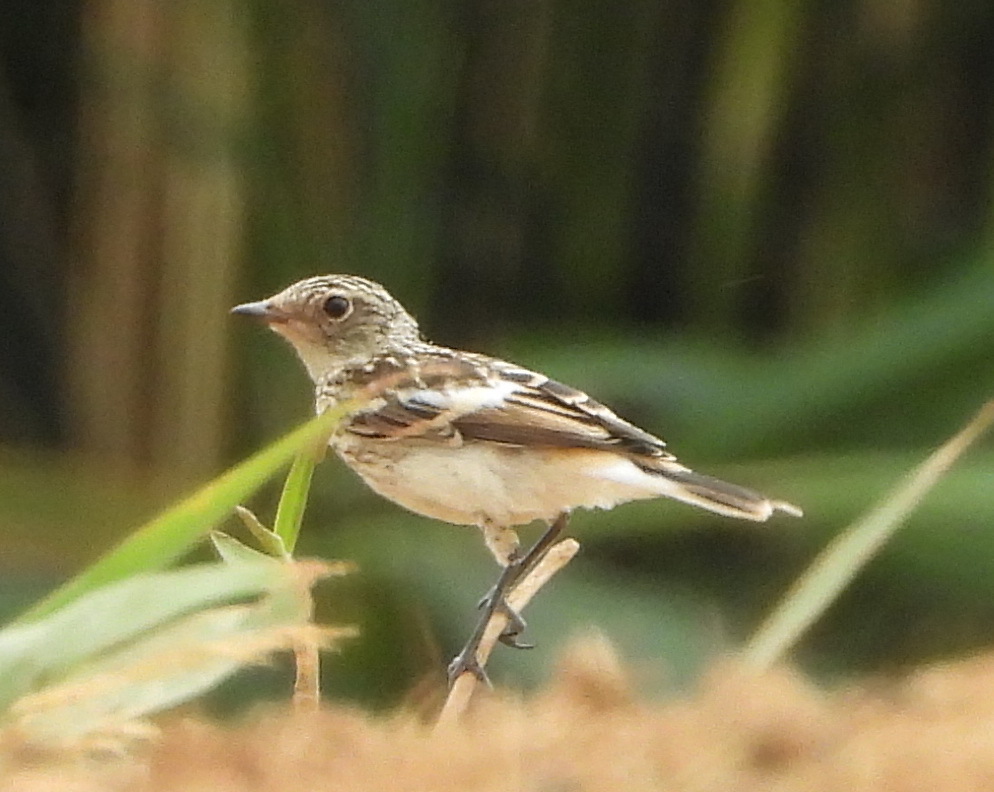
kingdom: Animalia
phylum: Chordata
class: Aves
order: Passeriformes
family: Muscicapidae
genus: Saxicola
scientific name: Saxicola maurus
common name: Siberian stonechat
